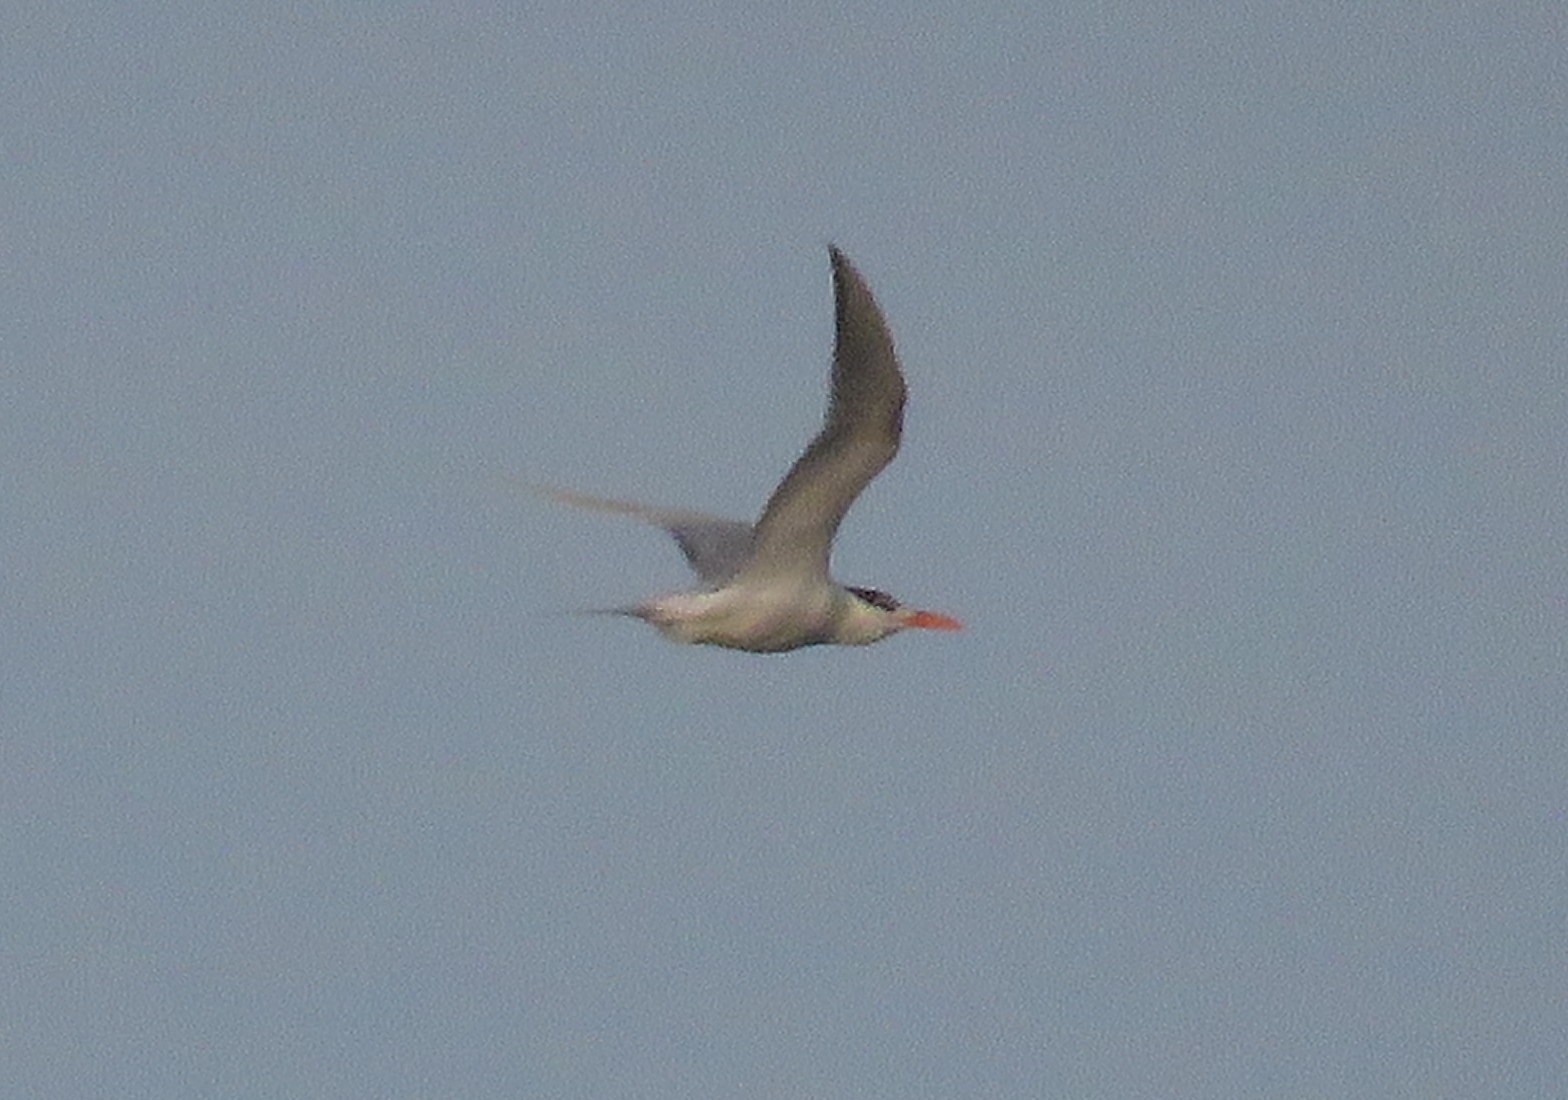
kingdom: Animalia
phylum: Chordata
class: Aves
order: Charadriiformes
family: Laridae
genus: Thalasseus
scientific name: Thalasseus maximus
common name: Royal tern
